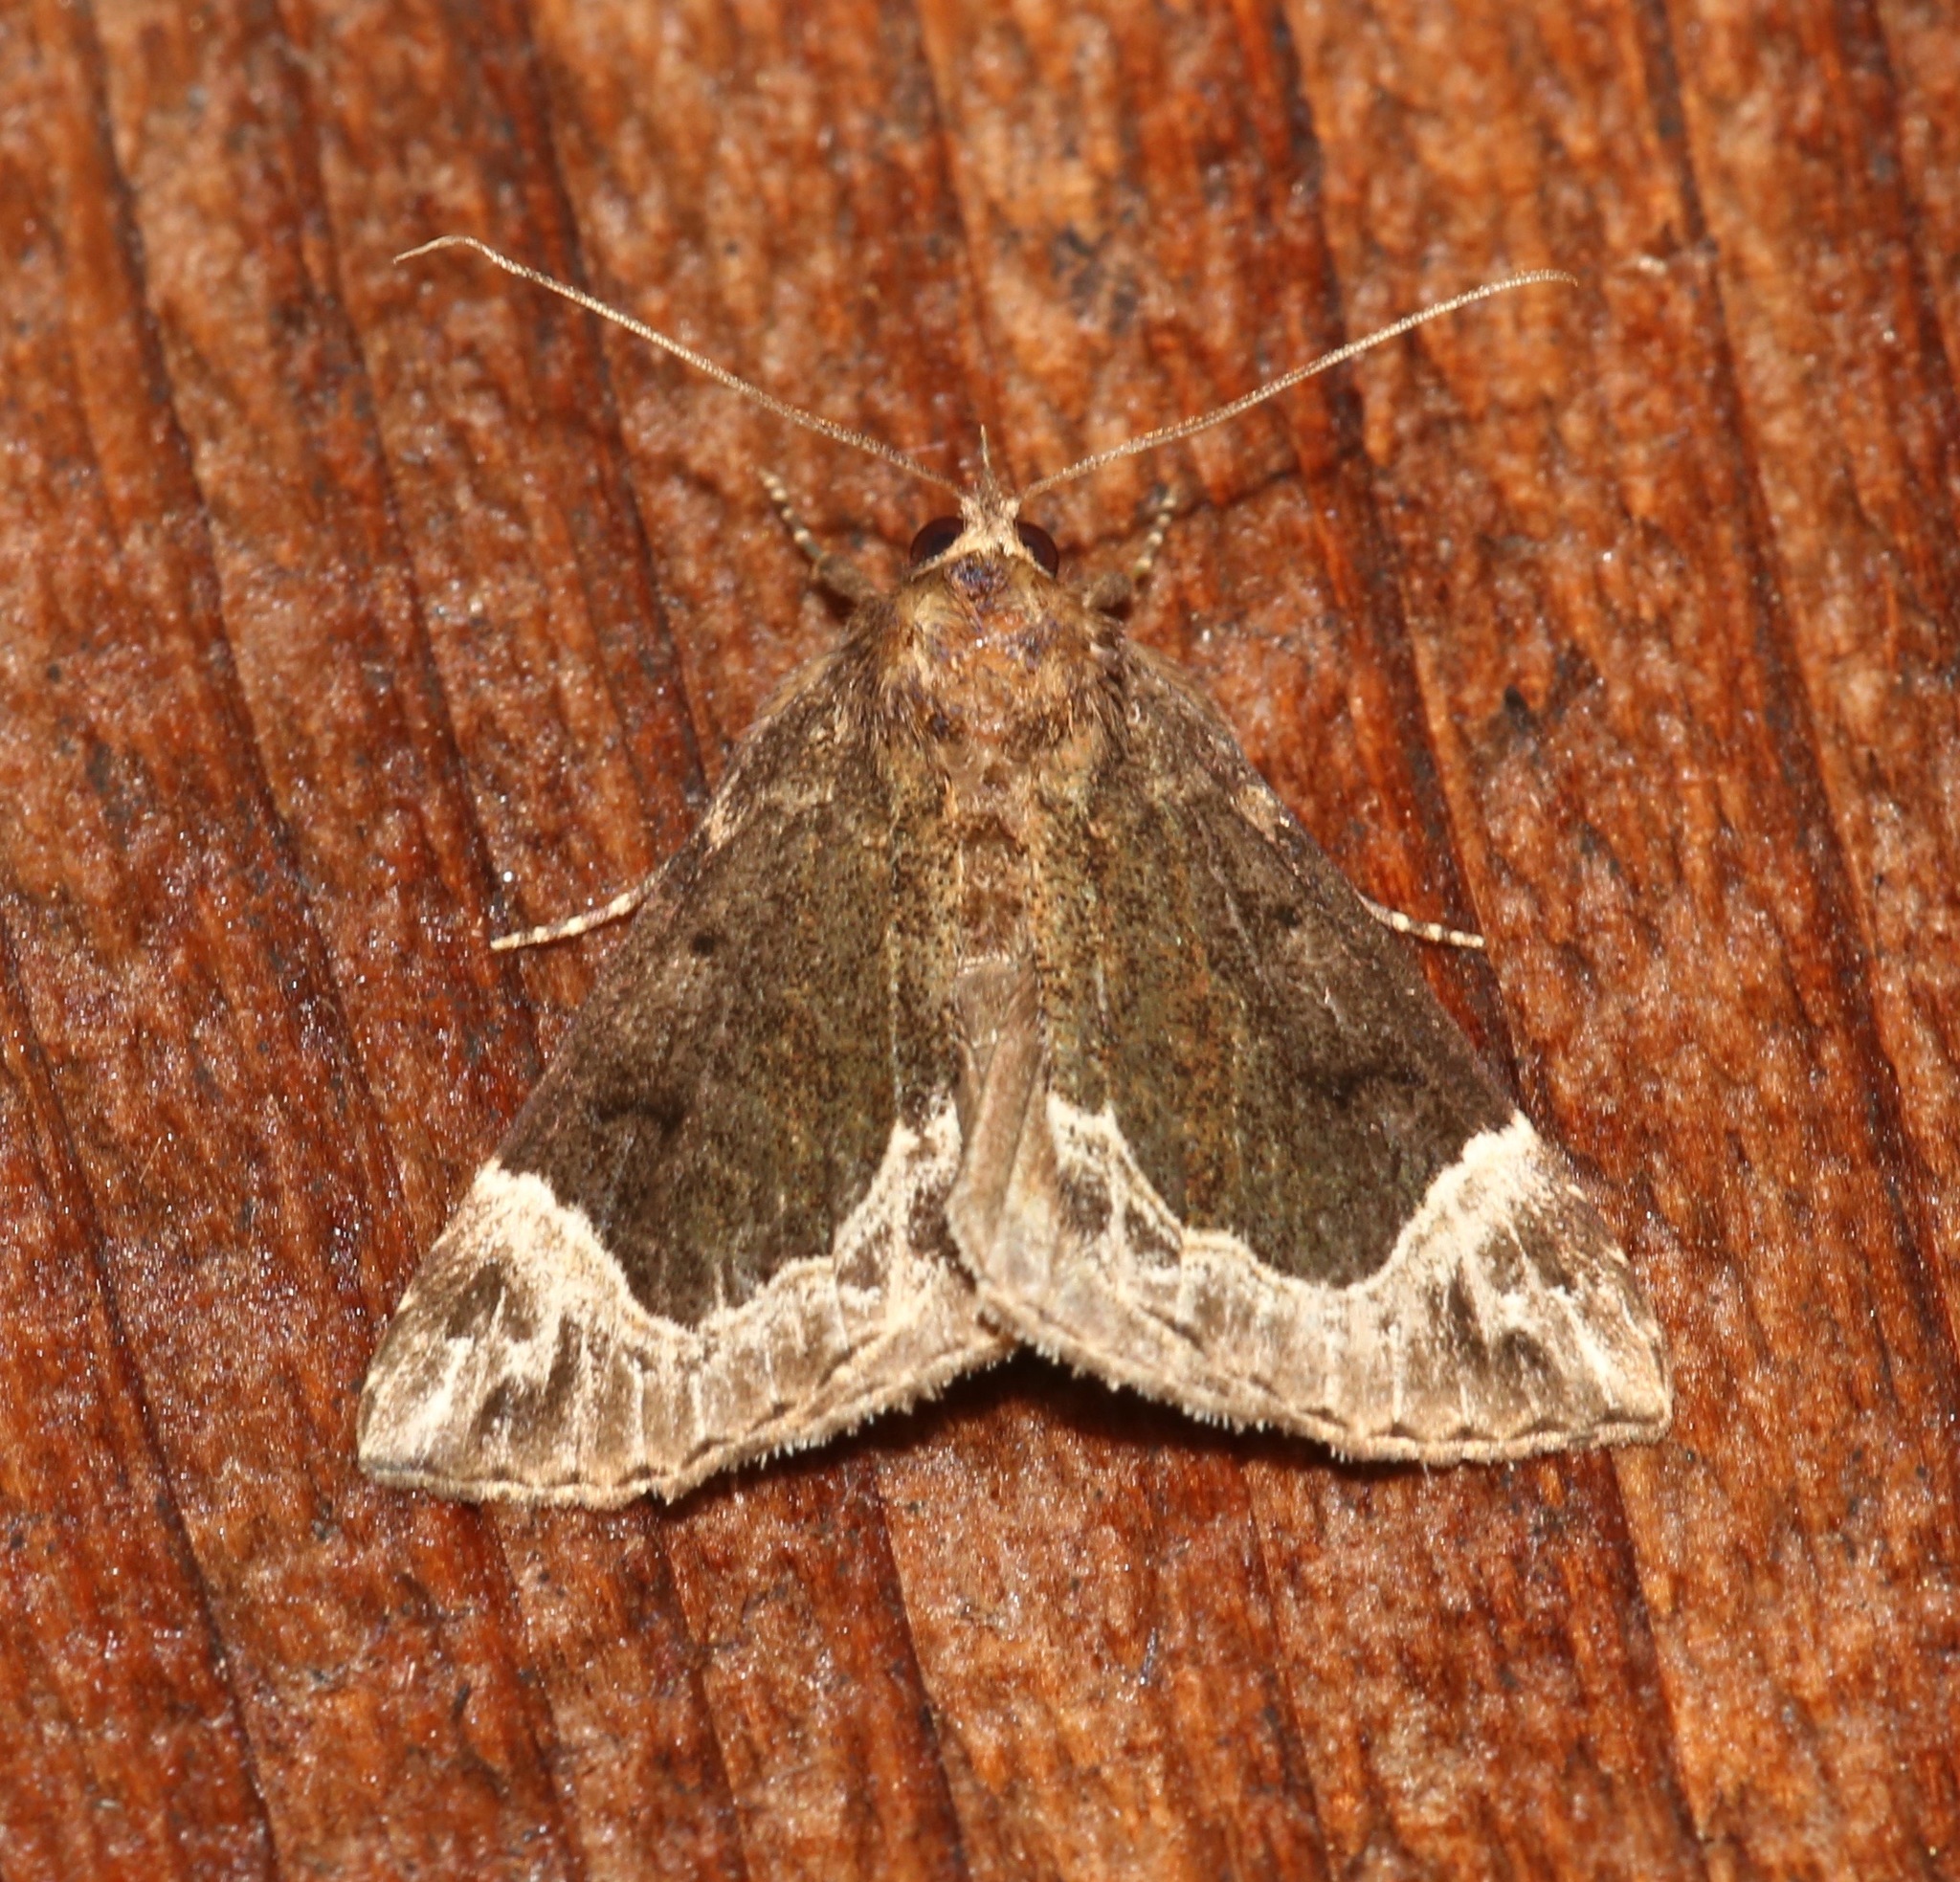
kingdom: Animalia
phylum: Arthropoda
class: Insecta
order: Lepidoptera
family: Erebidae
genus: Hypena
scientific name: Hypena abalienalis
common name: White-lined snout
